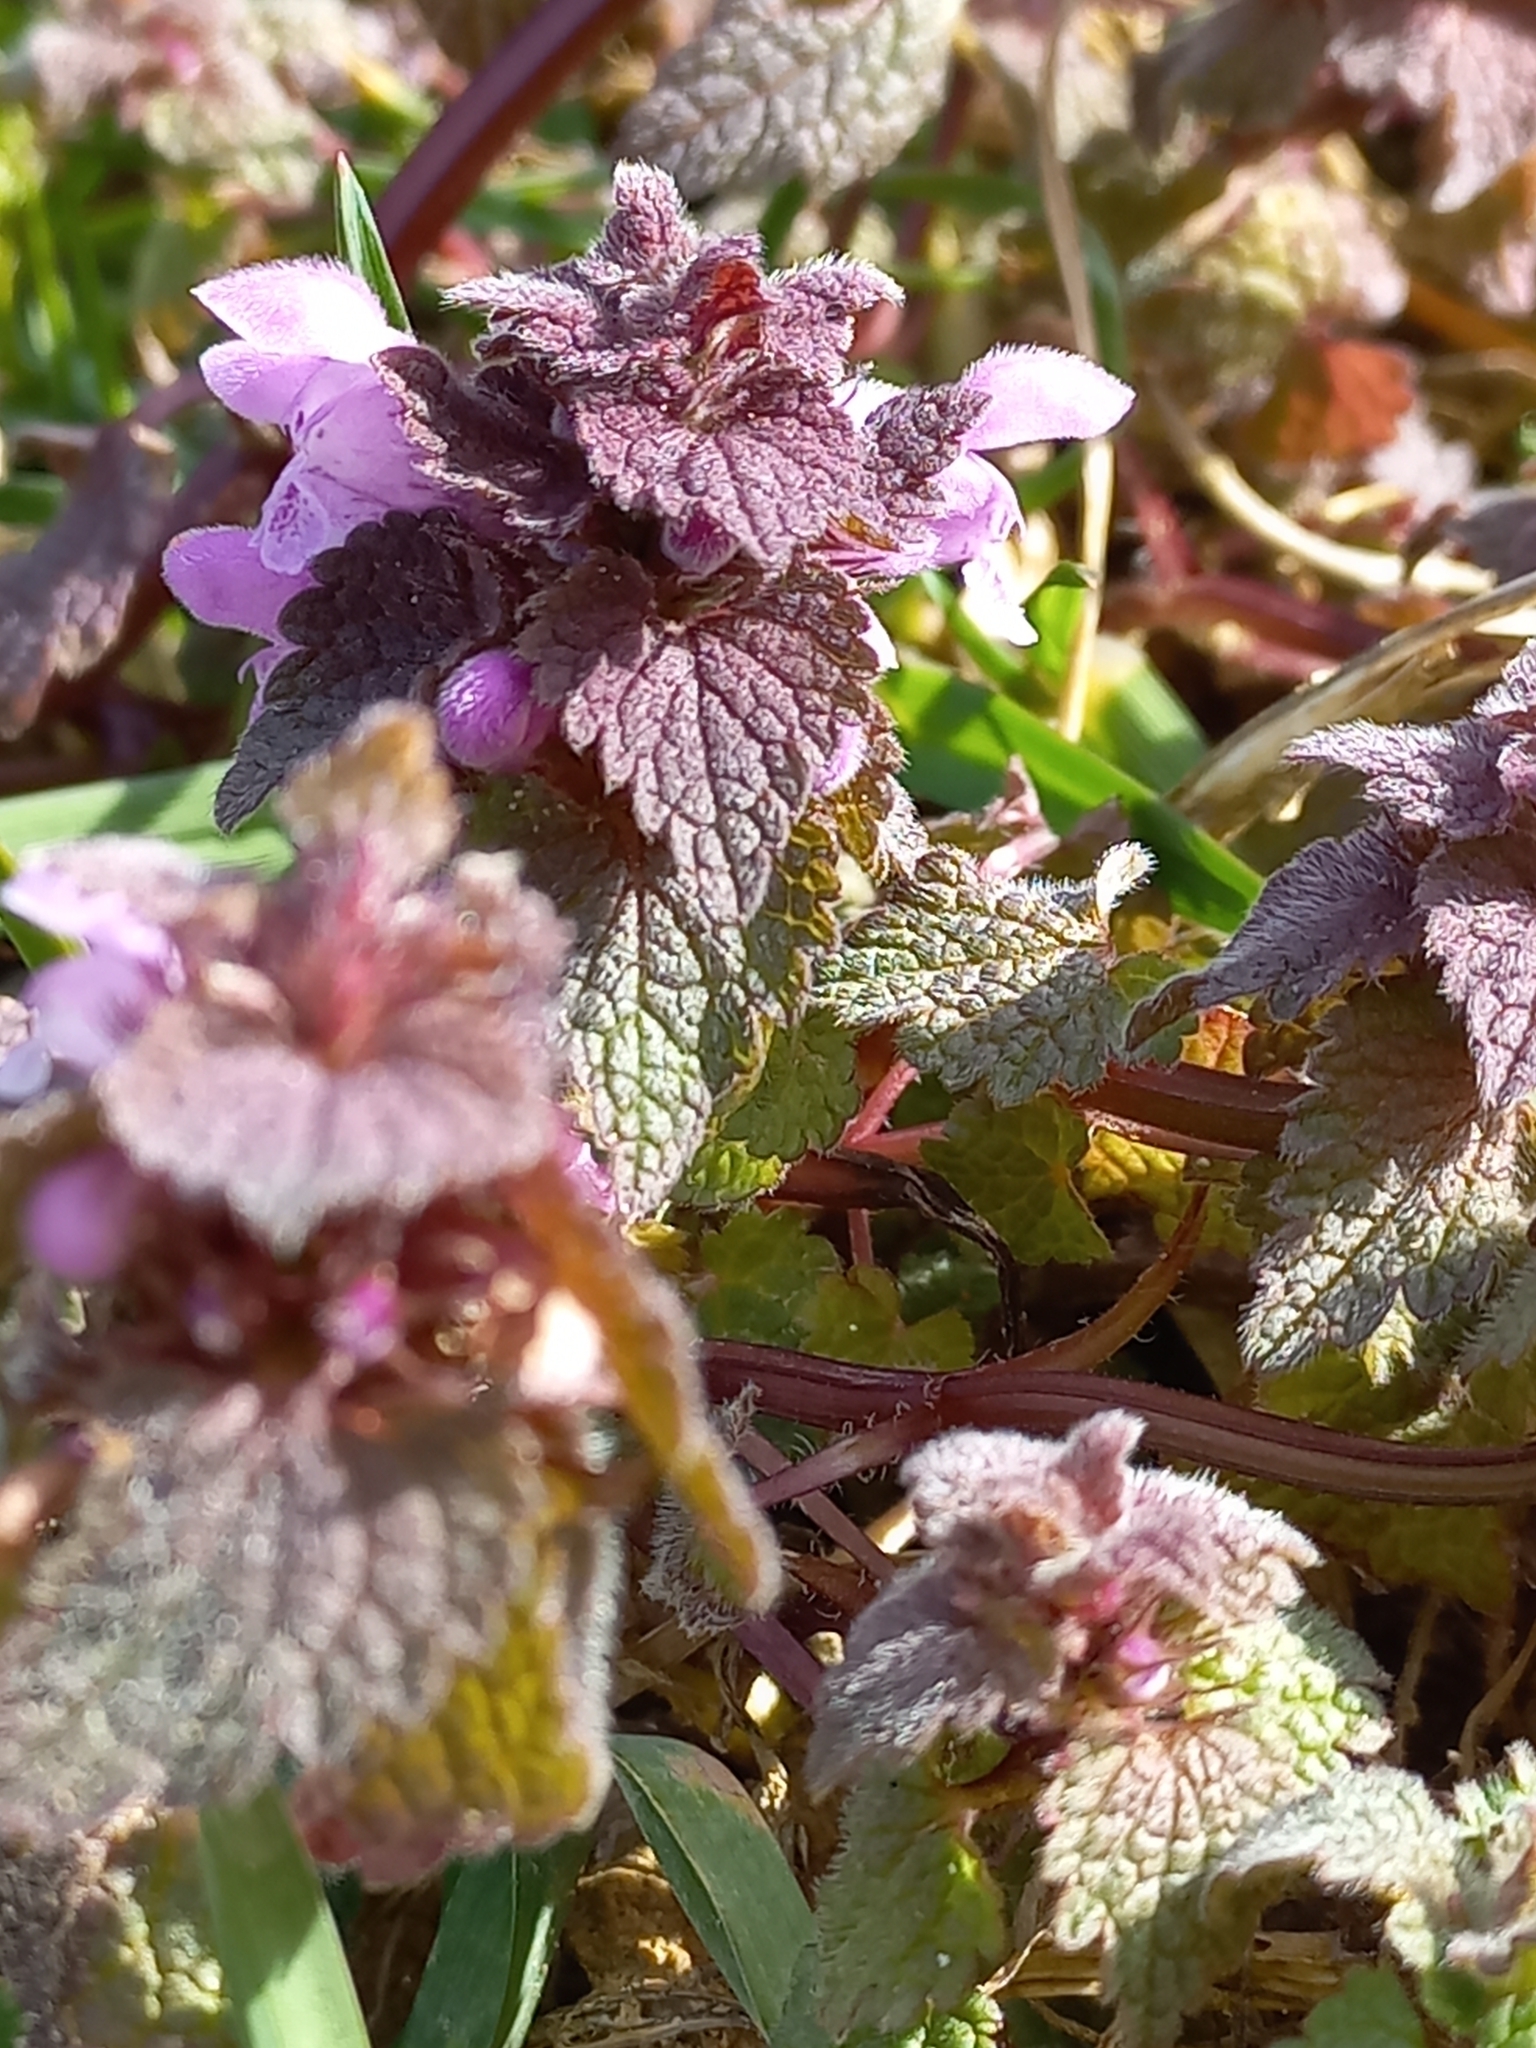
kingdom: Plantae
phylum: Tracheophyta
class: Magnoliopsida
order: Lamiales
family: Lamiaceae
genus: Lamium
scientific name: Lamium purpureum
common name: Red dead-nettle
